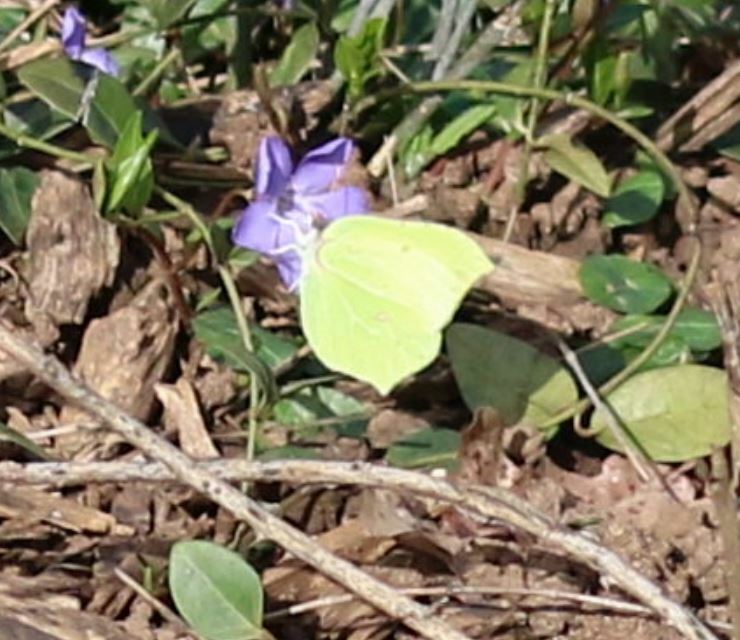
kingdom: Animalia
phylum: Arthropoda
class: Insecta
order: Lepidoptera
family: Pieridae
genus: Gonepteryx
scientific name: Gonepteryx rhamni
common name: Brimstone
